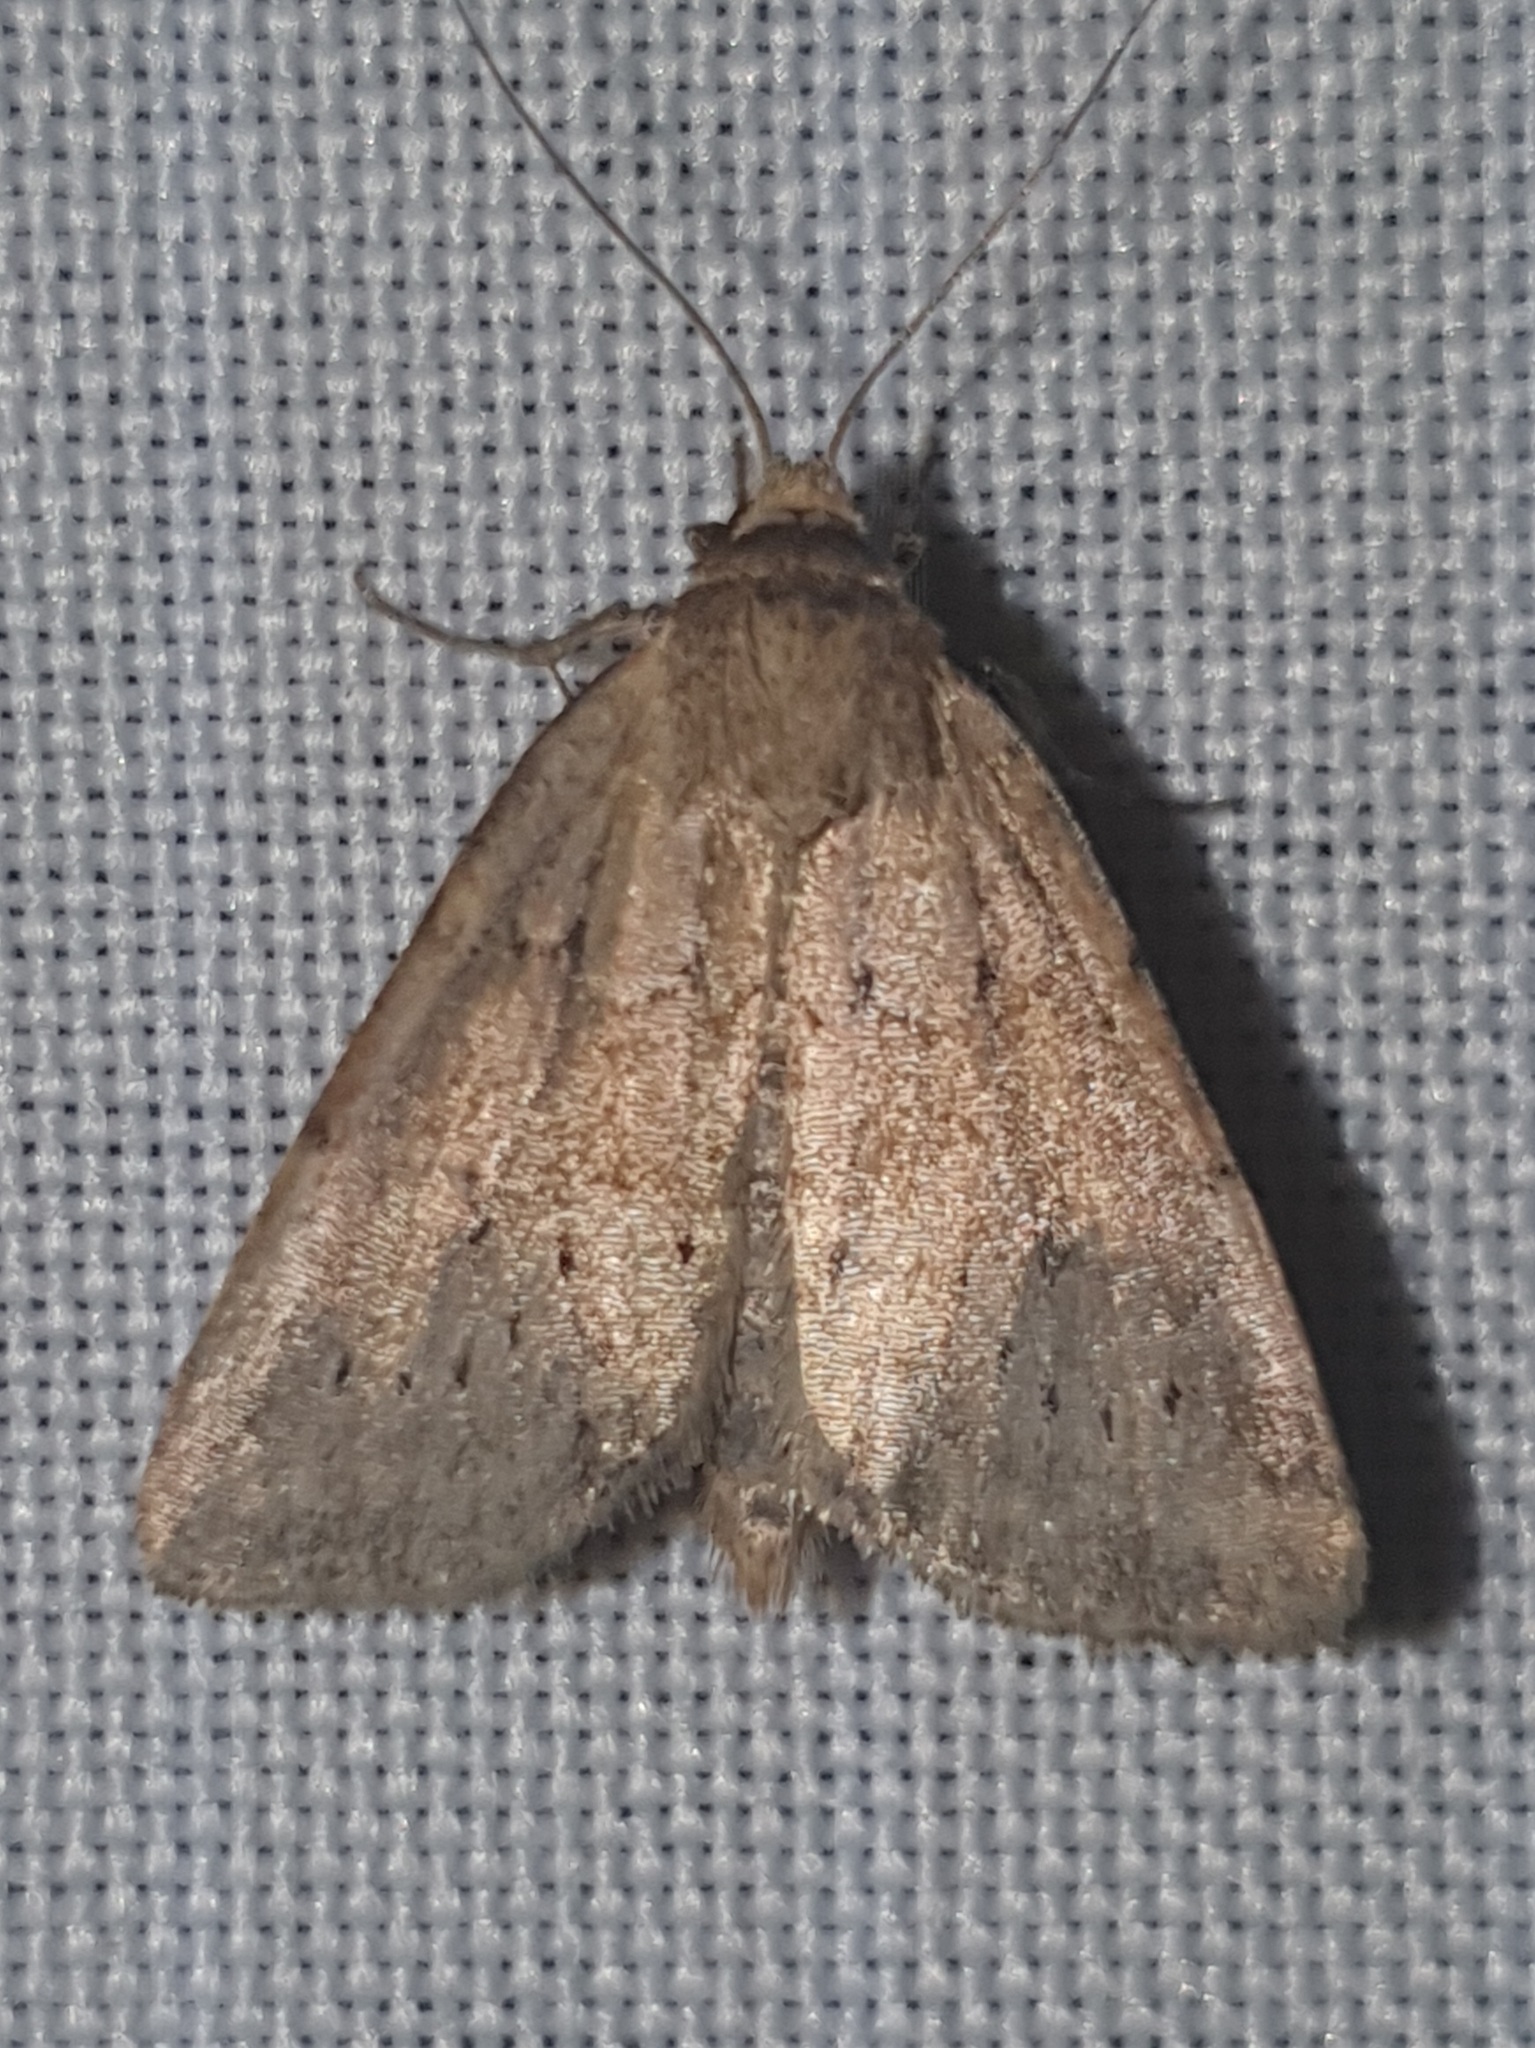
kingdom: Animalia
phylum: Arthropoda
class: Insecta
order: Lepidoptera
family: Noctuidae
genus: Photedes
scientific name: Photedes minima
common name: Small dotted buff
